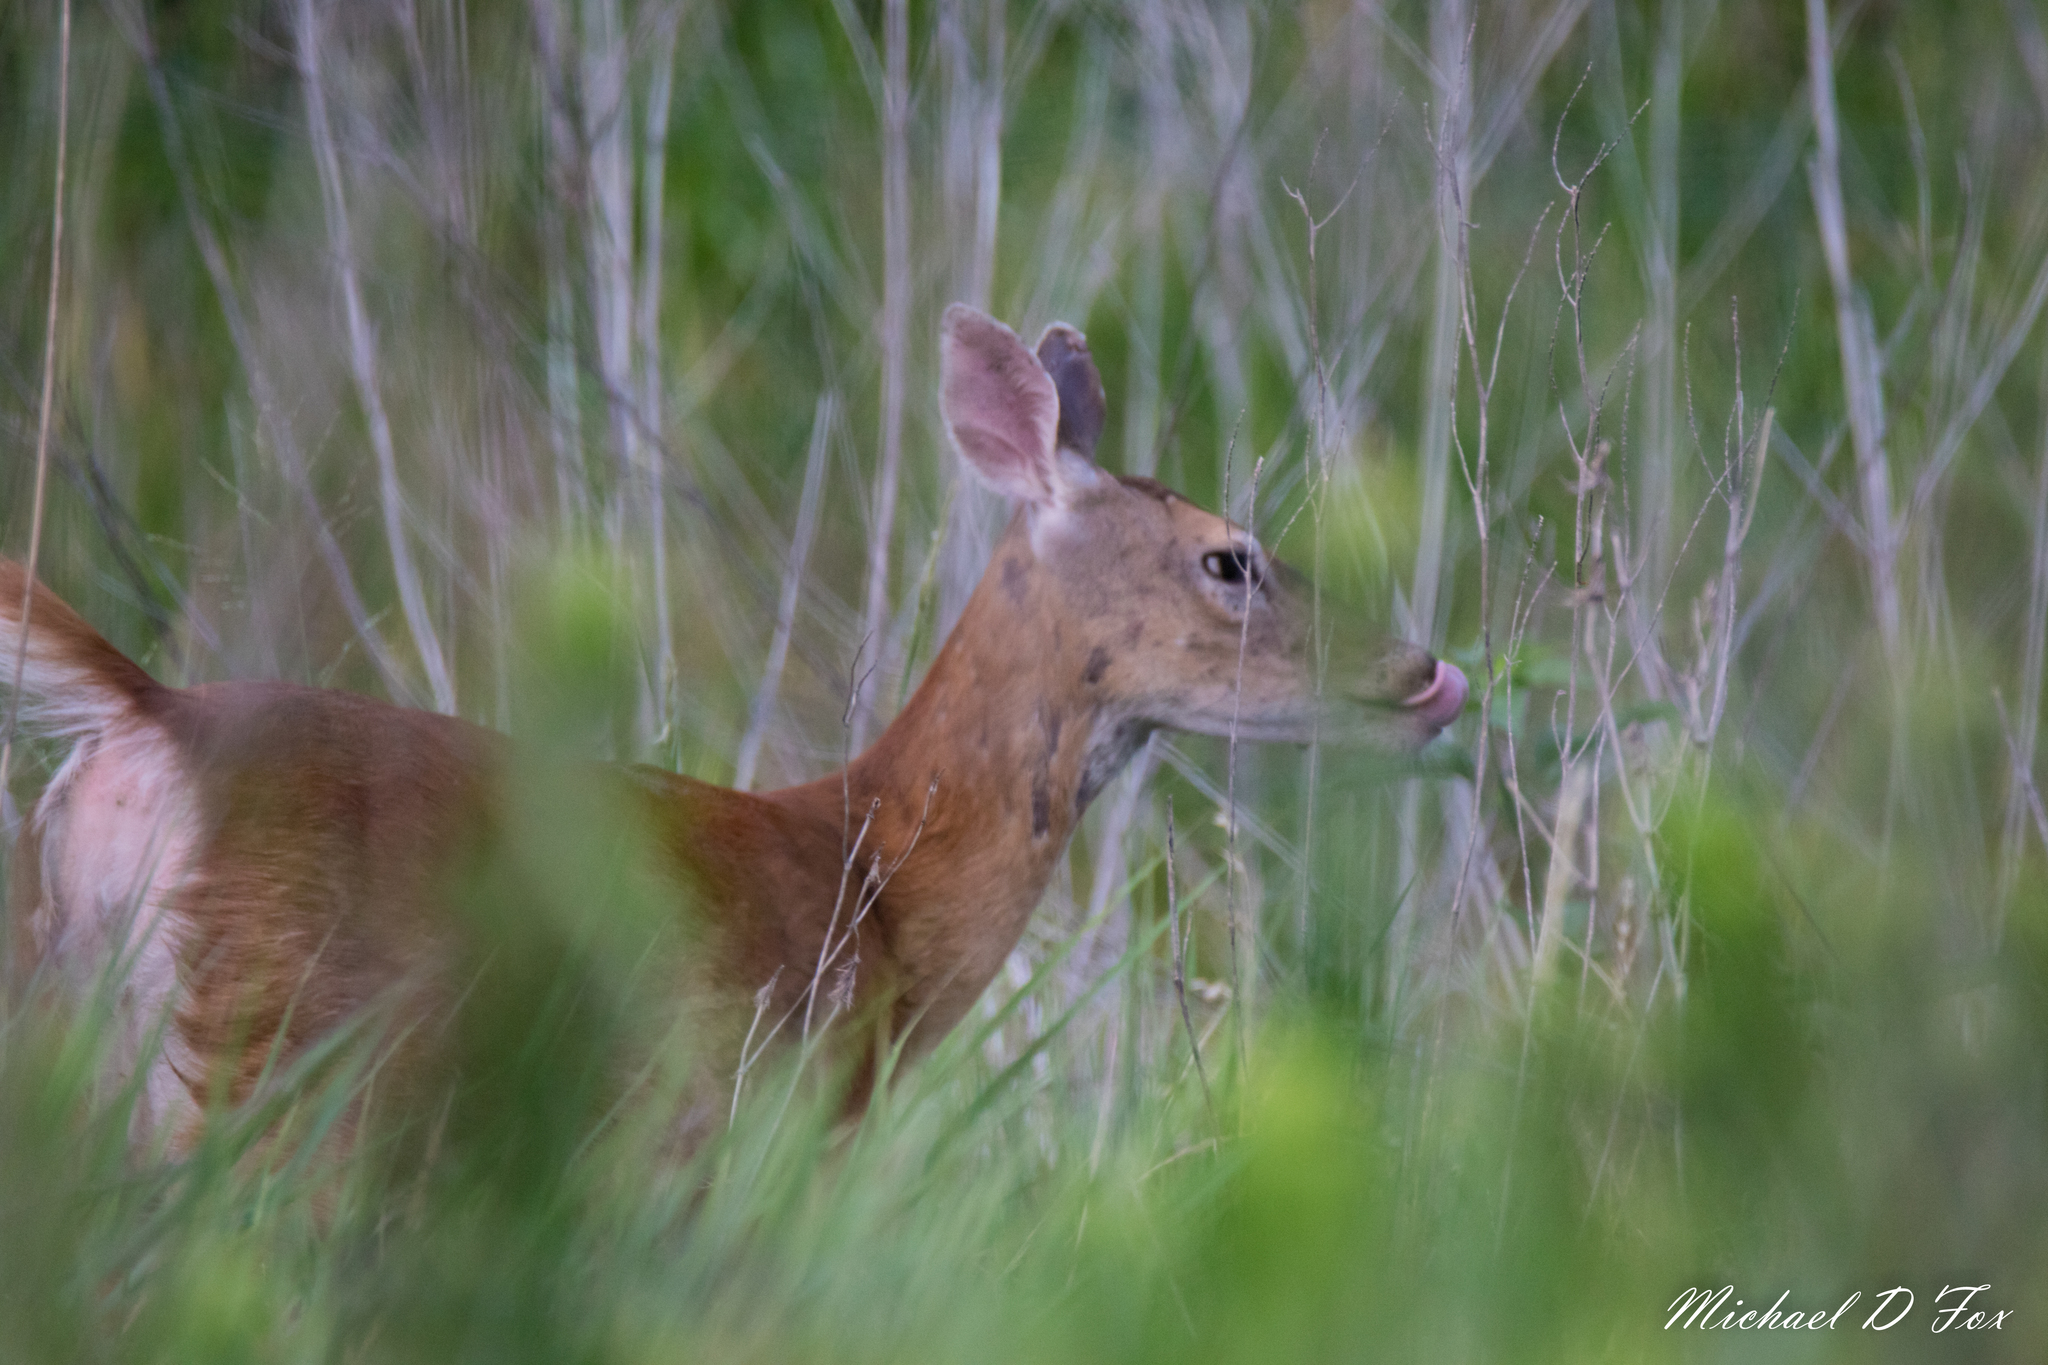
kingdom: Animalia
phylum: Chordata
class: Mammalia
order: Artiodactyla
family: Cervidae
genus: Odocoileus
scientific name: Odocoileus virginianus
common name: White-tailed deer
